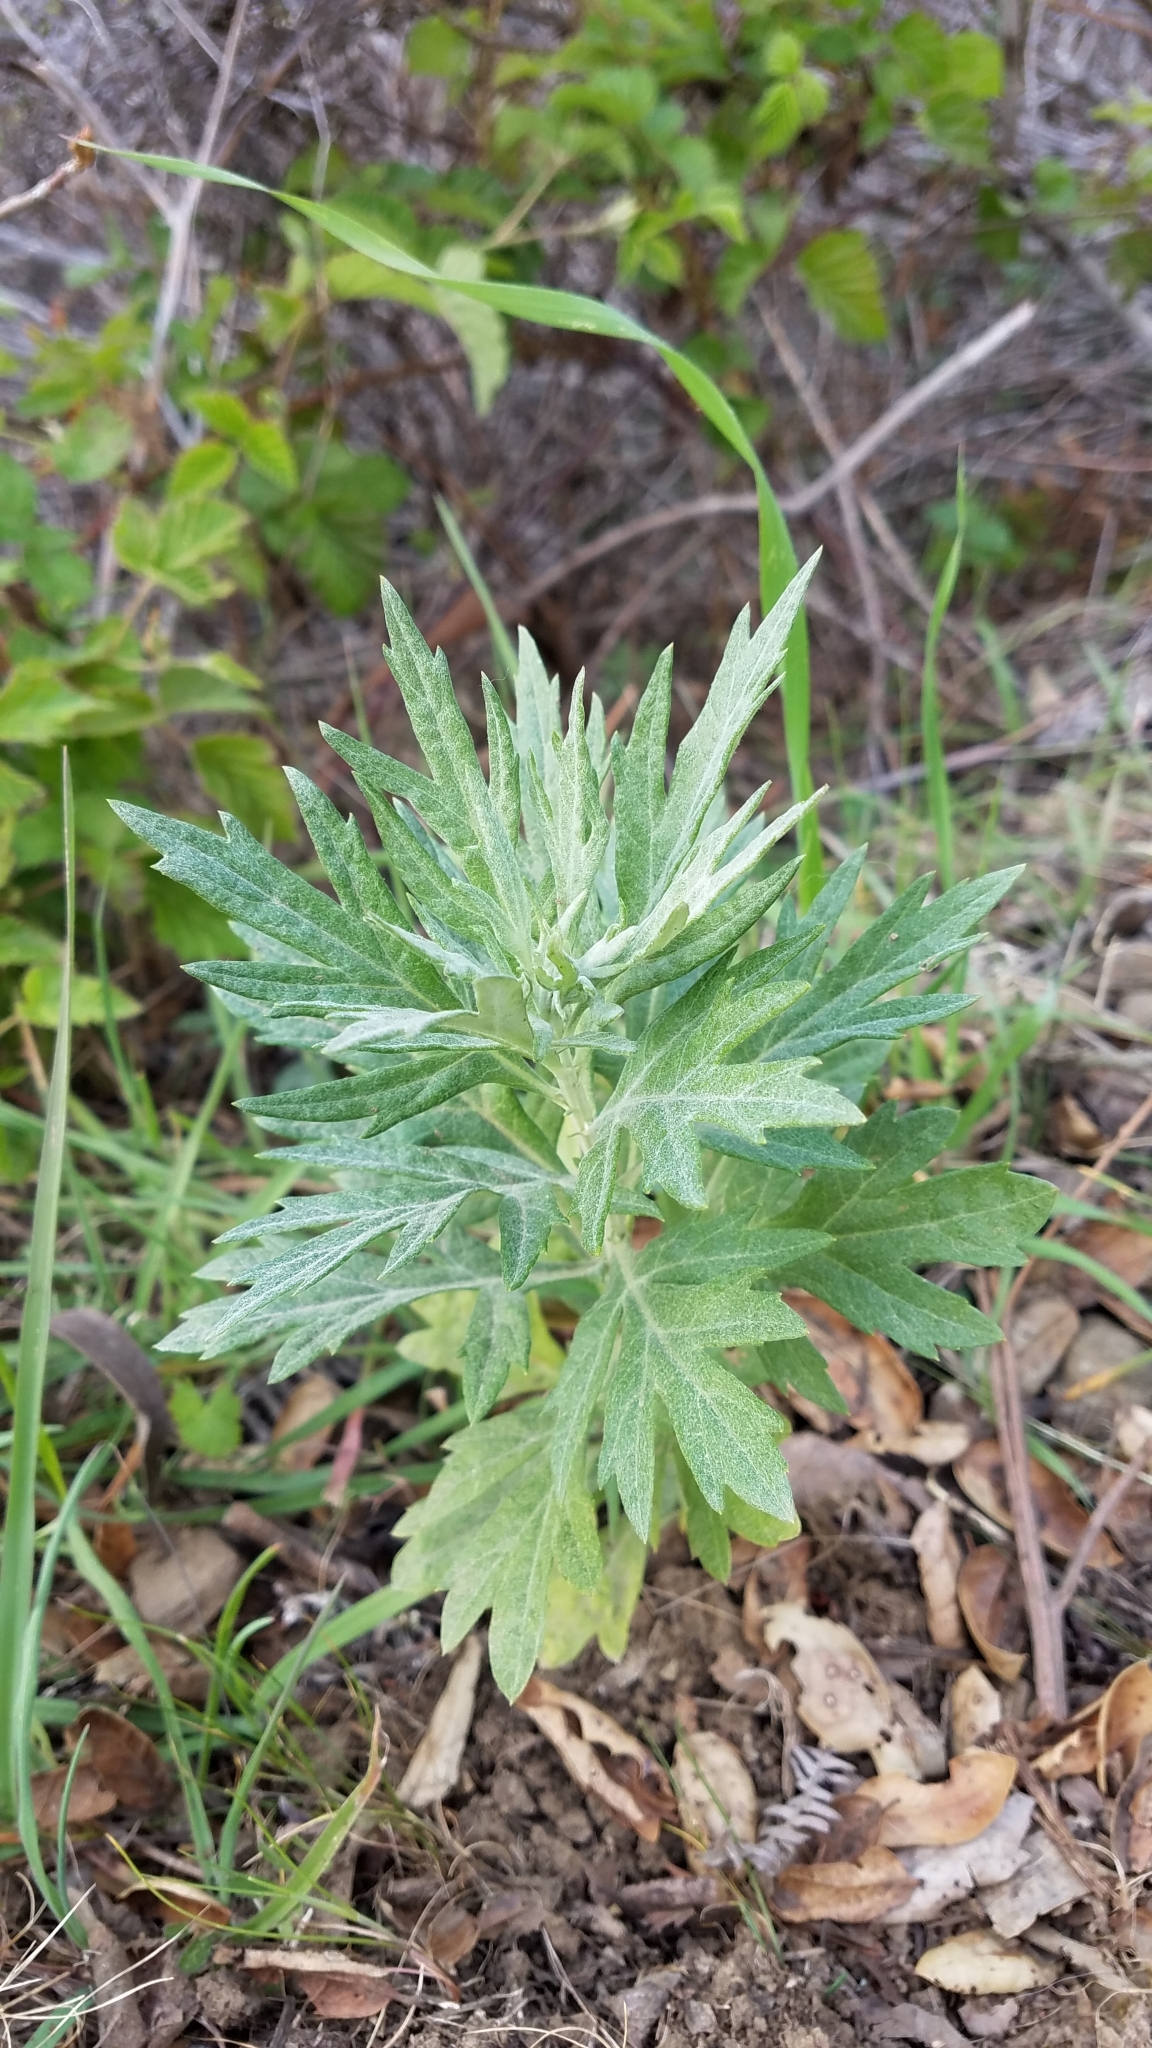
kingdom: Plantae
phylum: Tracheophyta
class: Magnoliopsida
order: Asterales
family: Asteraceae
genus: Artemisia
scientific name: Artemisia douglasiana
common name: Northwest mugwort
